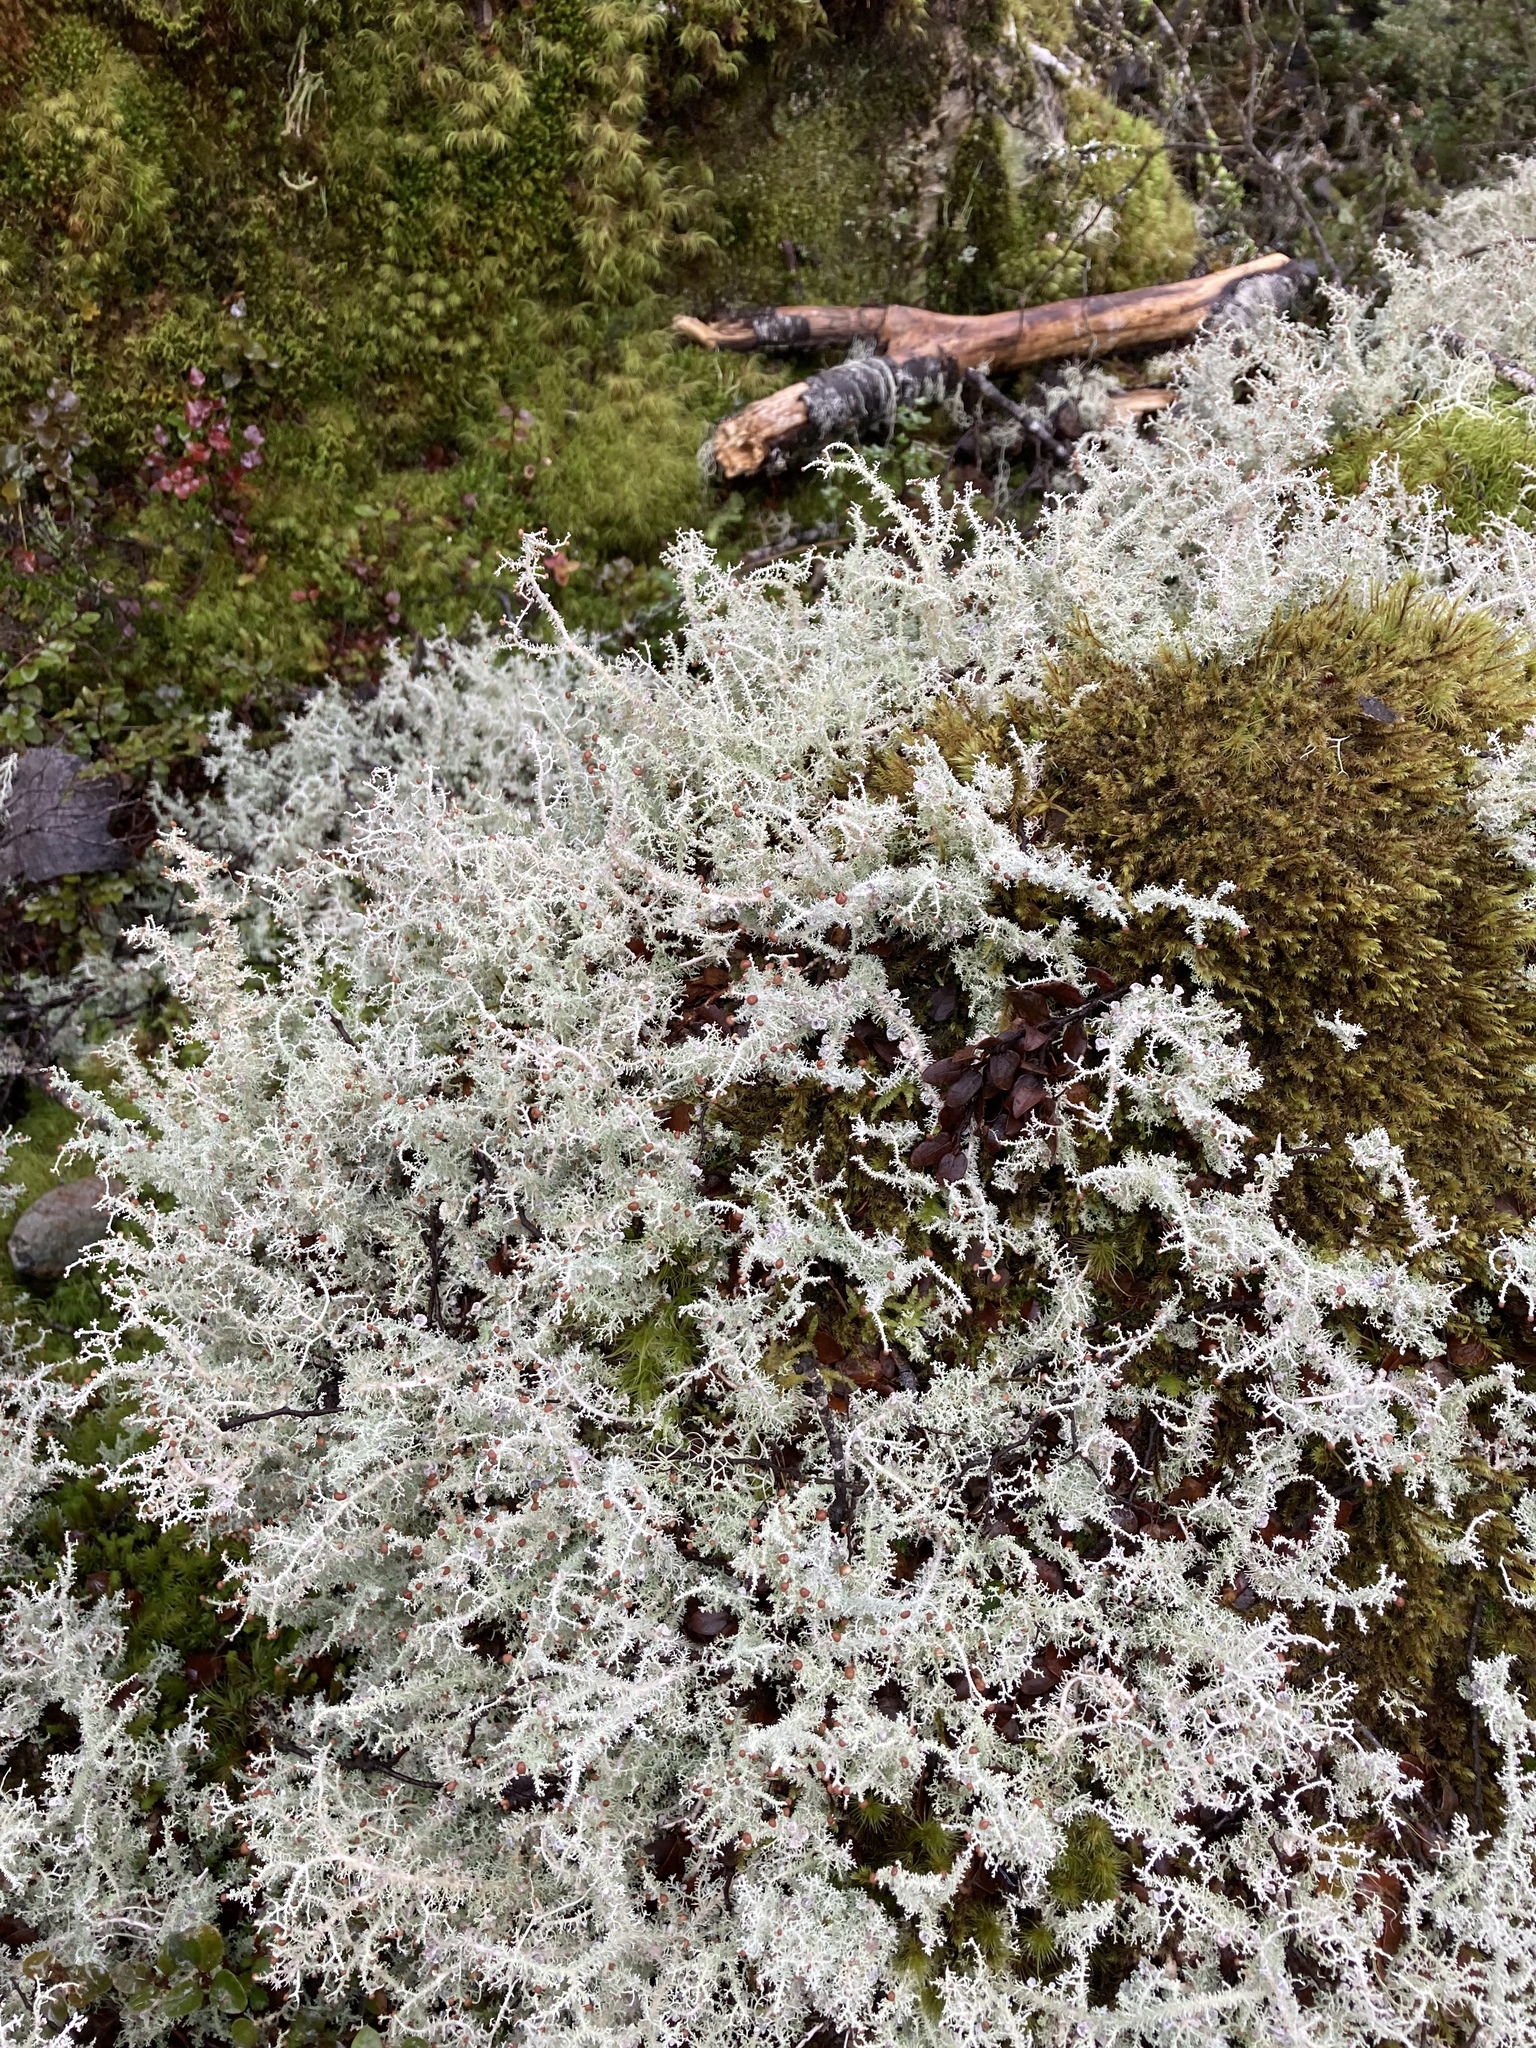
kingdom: Fungi
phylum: Ascomycota
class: Lecanoromycetes
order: Lecanorales
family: Stereocaulaceae
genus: Stereocaulon
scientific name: Stereocaulon ramulosum
